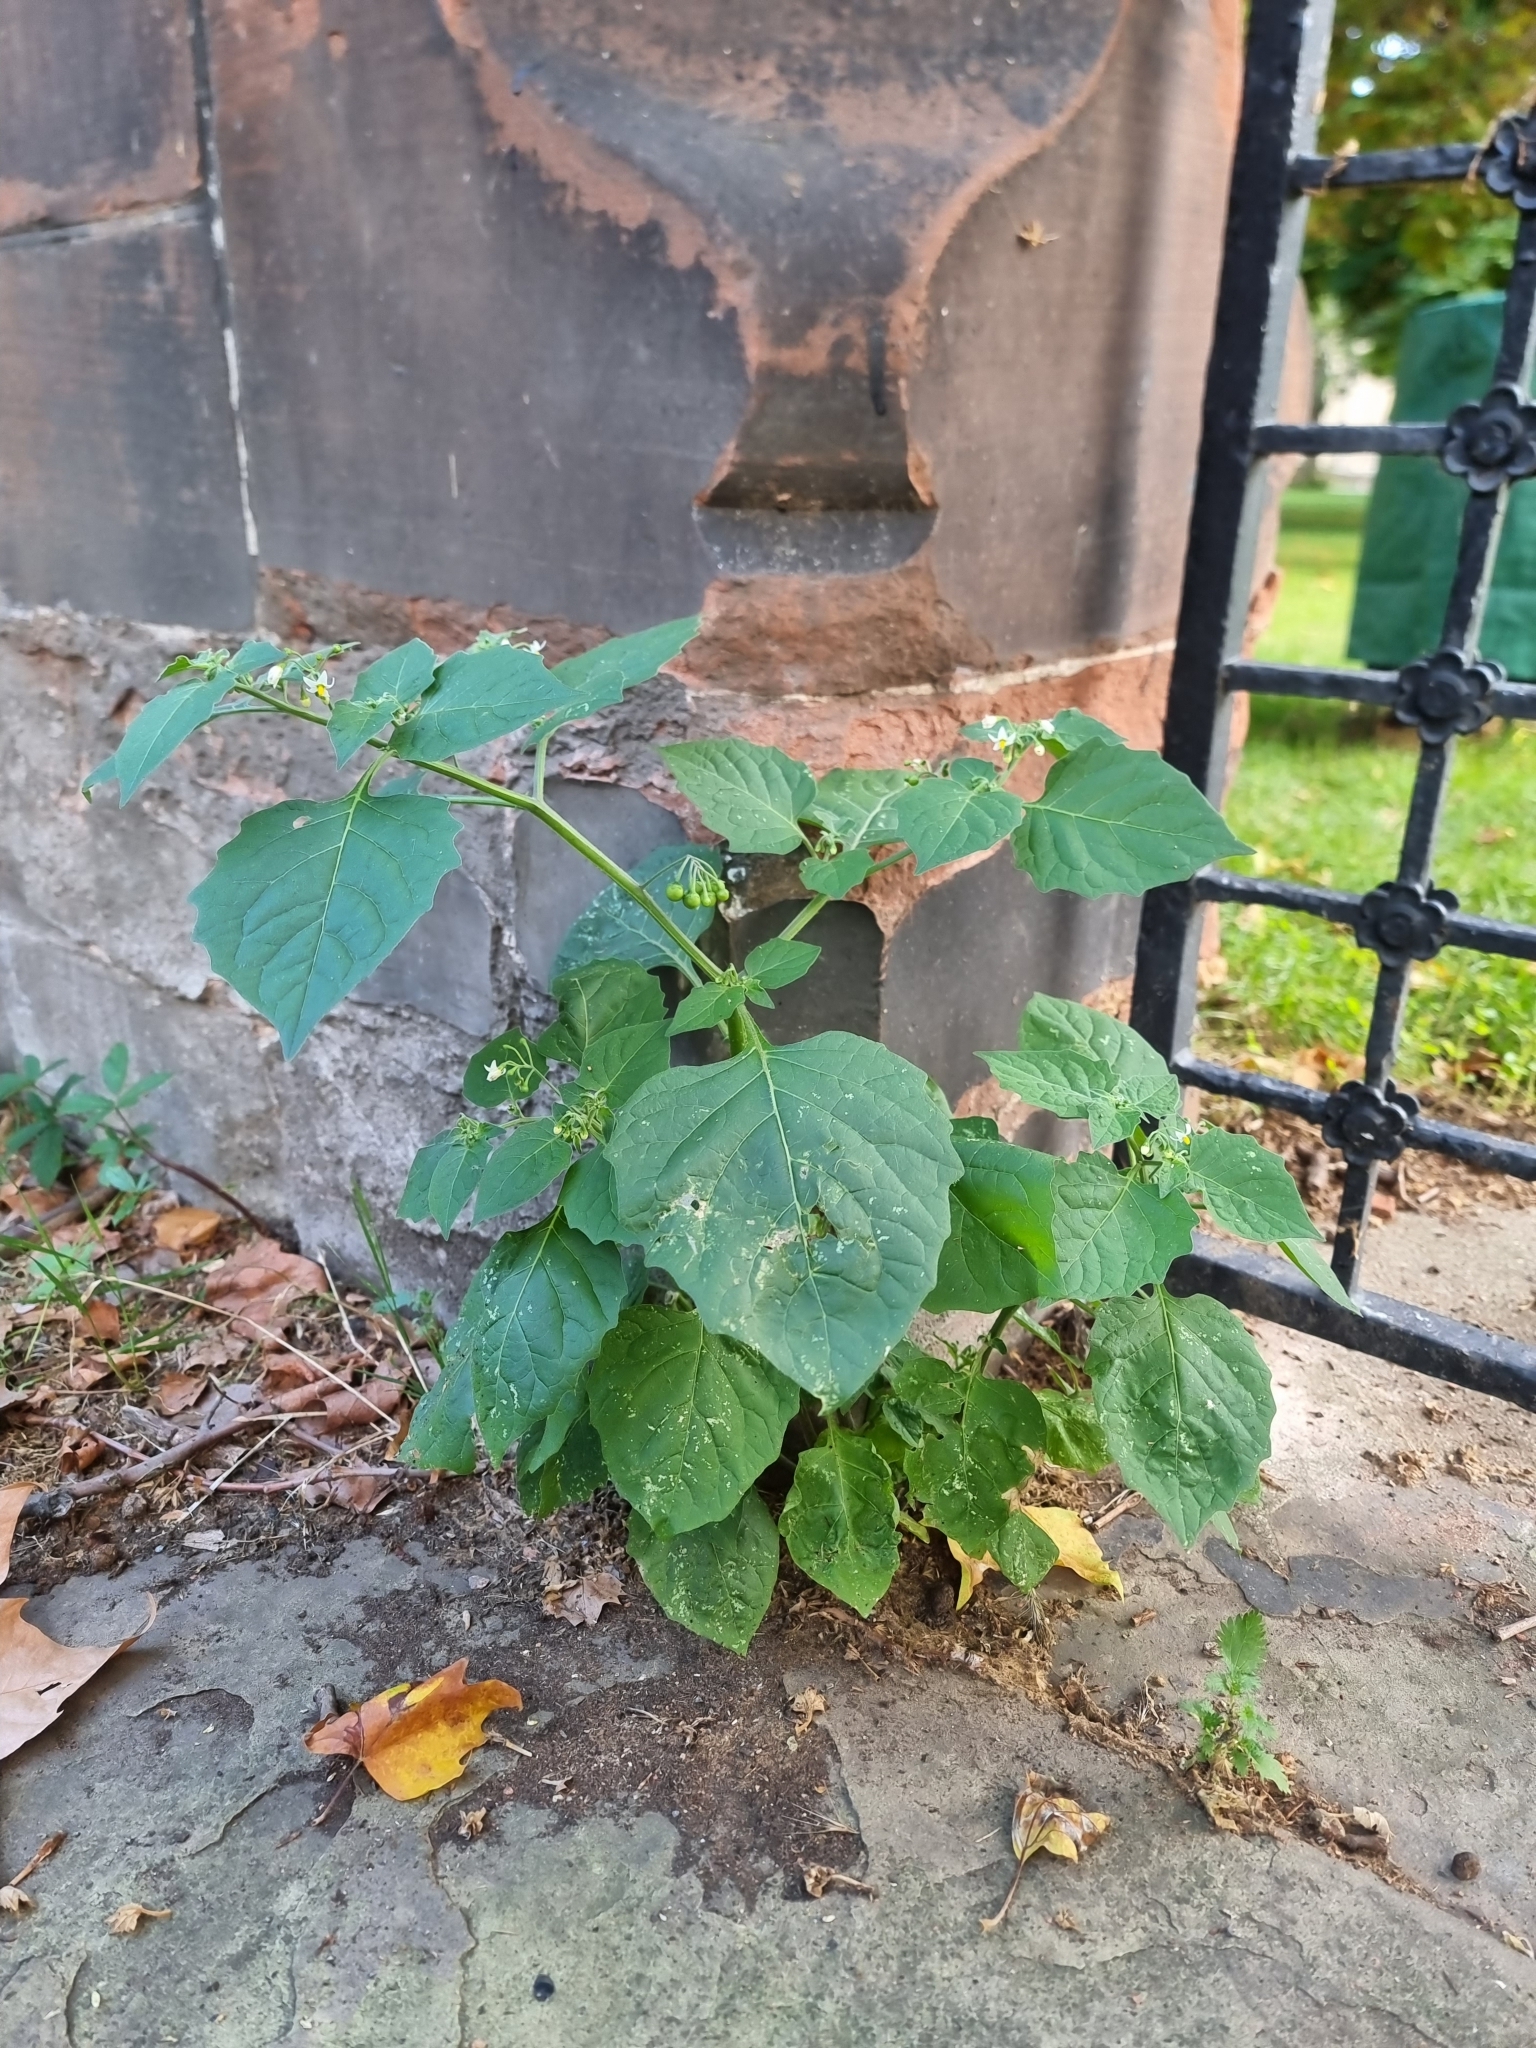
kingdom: Plantae
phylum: Tracheophyta
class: Magnoliopsida
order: Solanales
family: Solanaceae
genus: Solanum
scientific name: Solanum nigrum
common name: Black nightshade
